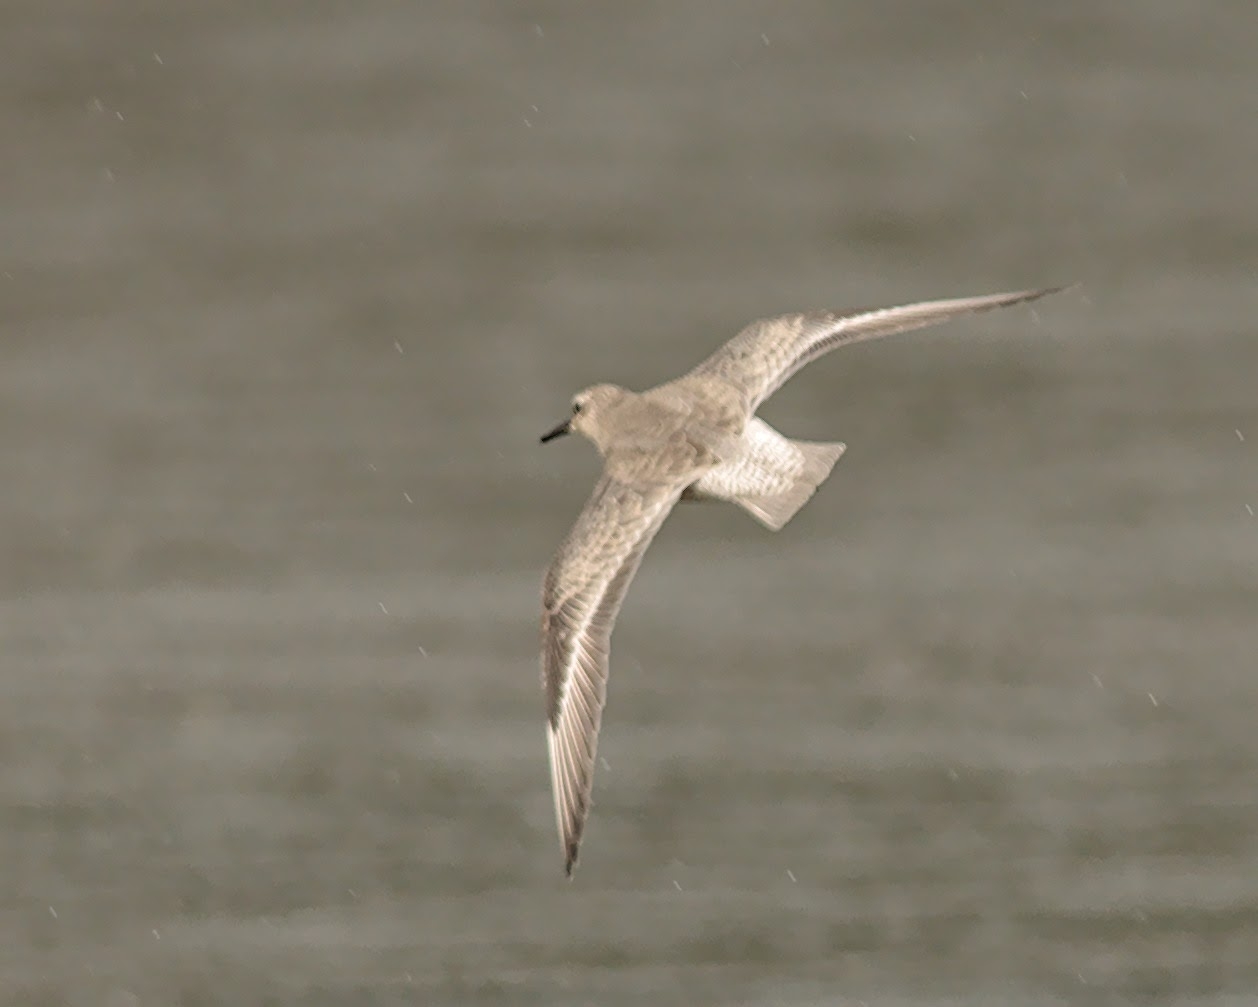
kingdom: Animalia
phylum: Chordata
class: Aves
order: Charadriiformes
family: Scolopacidae
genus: Calidris
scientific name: Calidris canutus
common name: Red knot
